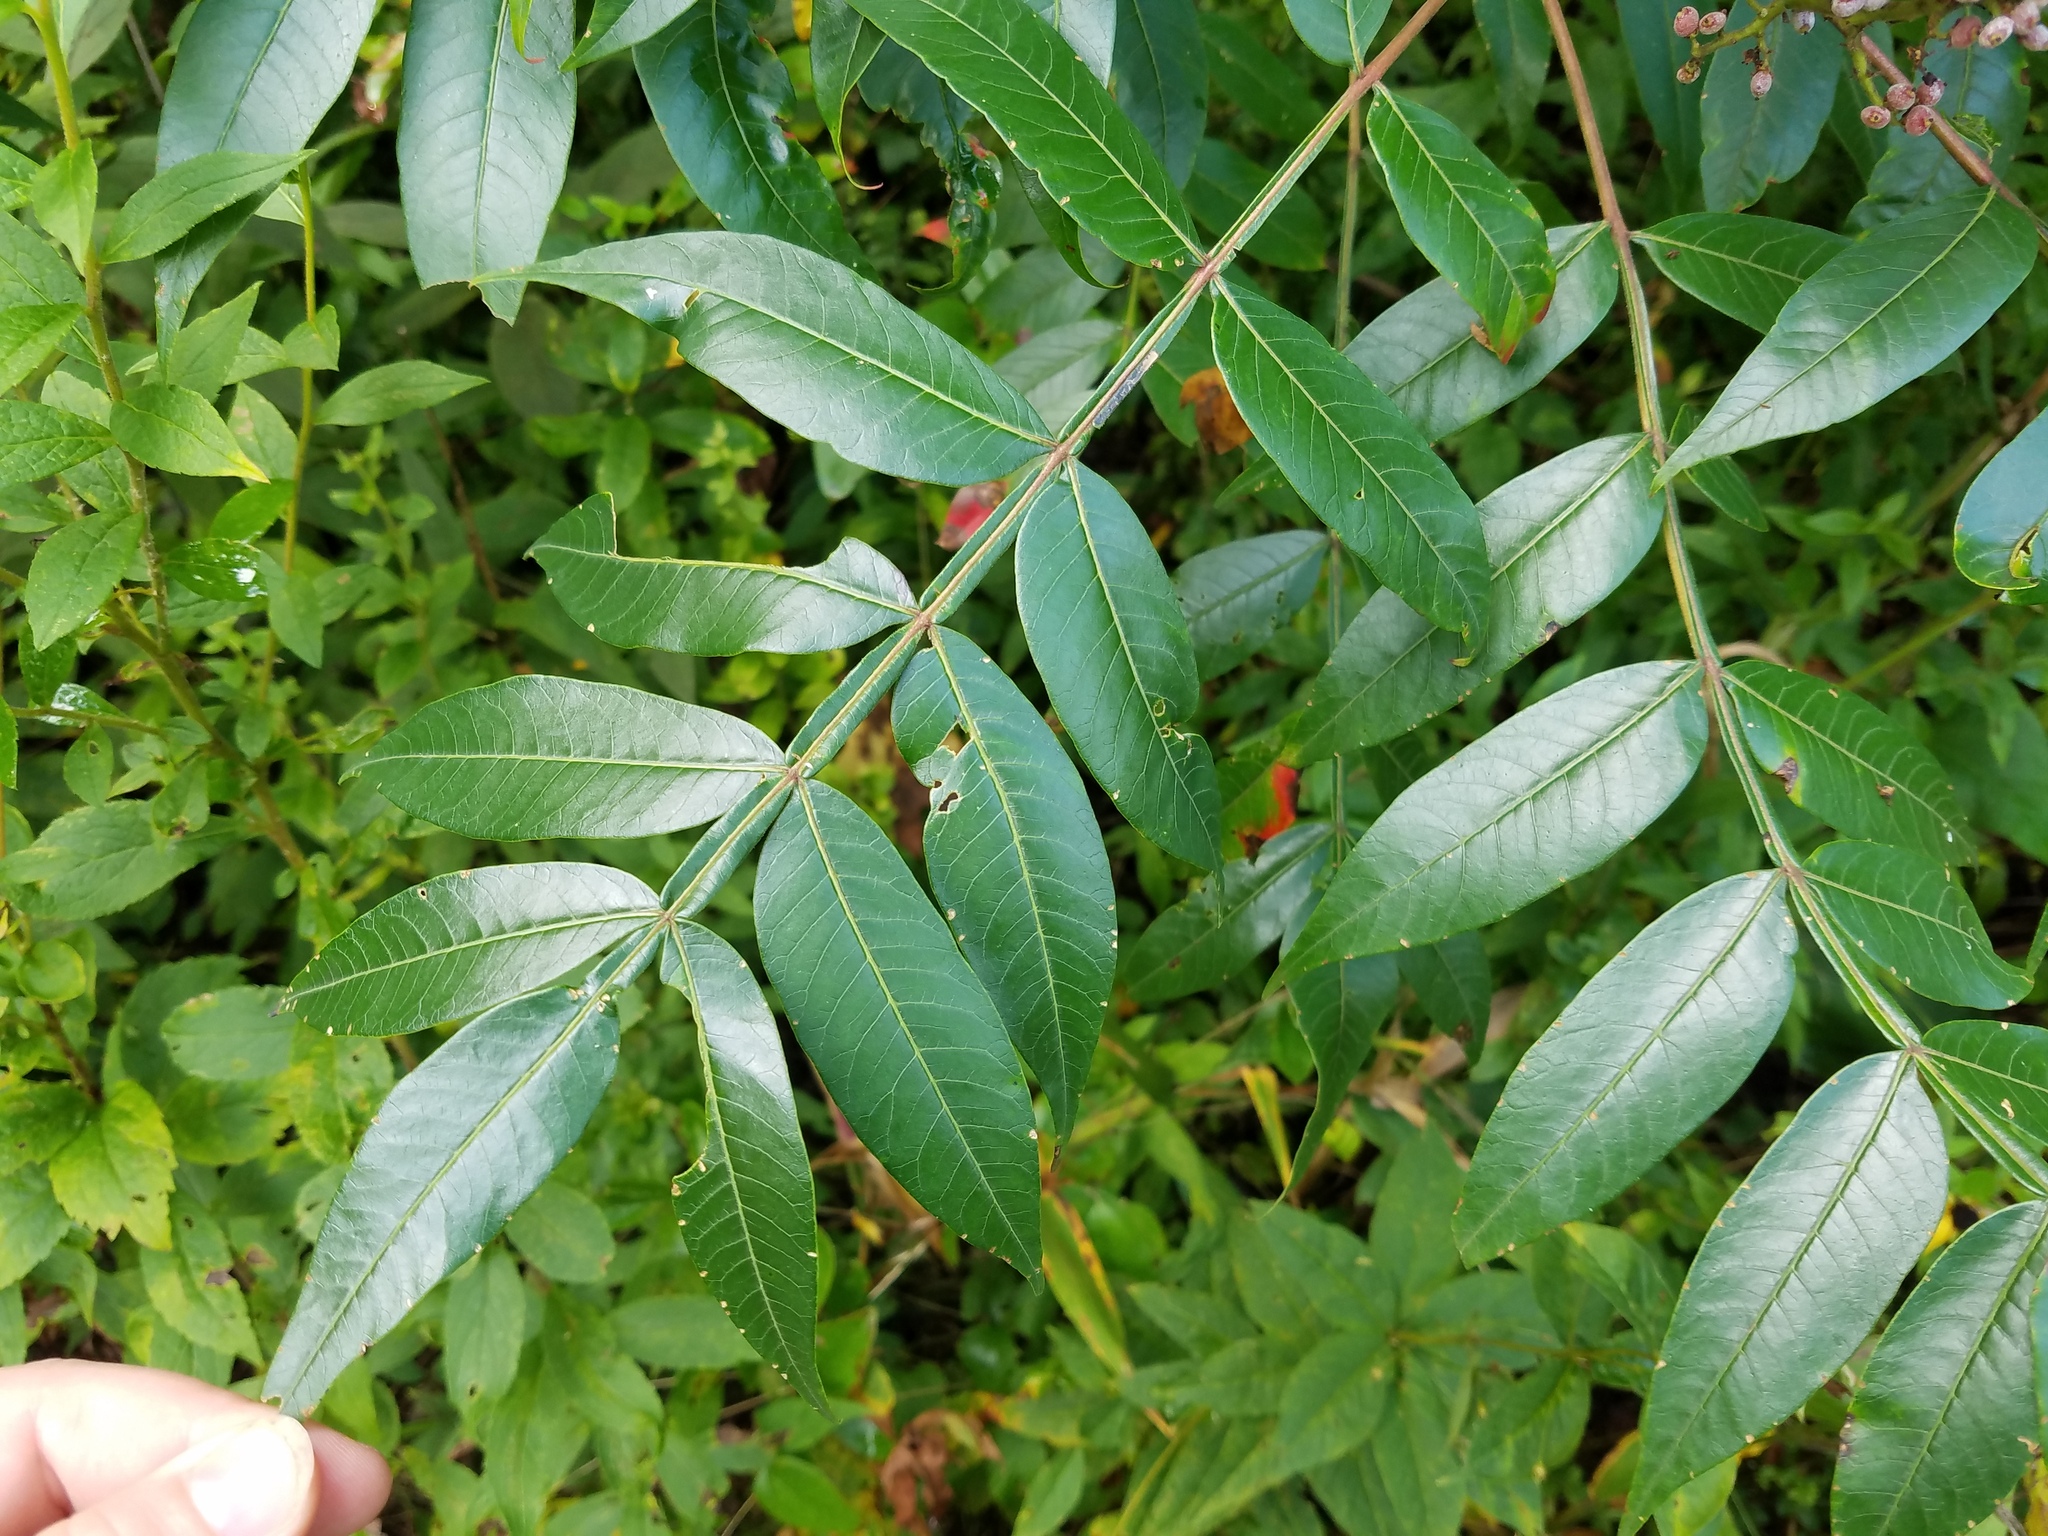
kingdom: Plantae
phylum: Tracheophyta
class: Magnoliopsida
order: Sapindales
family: Anacardiaceae
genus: Rhus
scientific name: Rhus copallina
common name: Shining sumac
